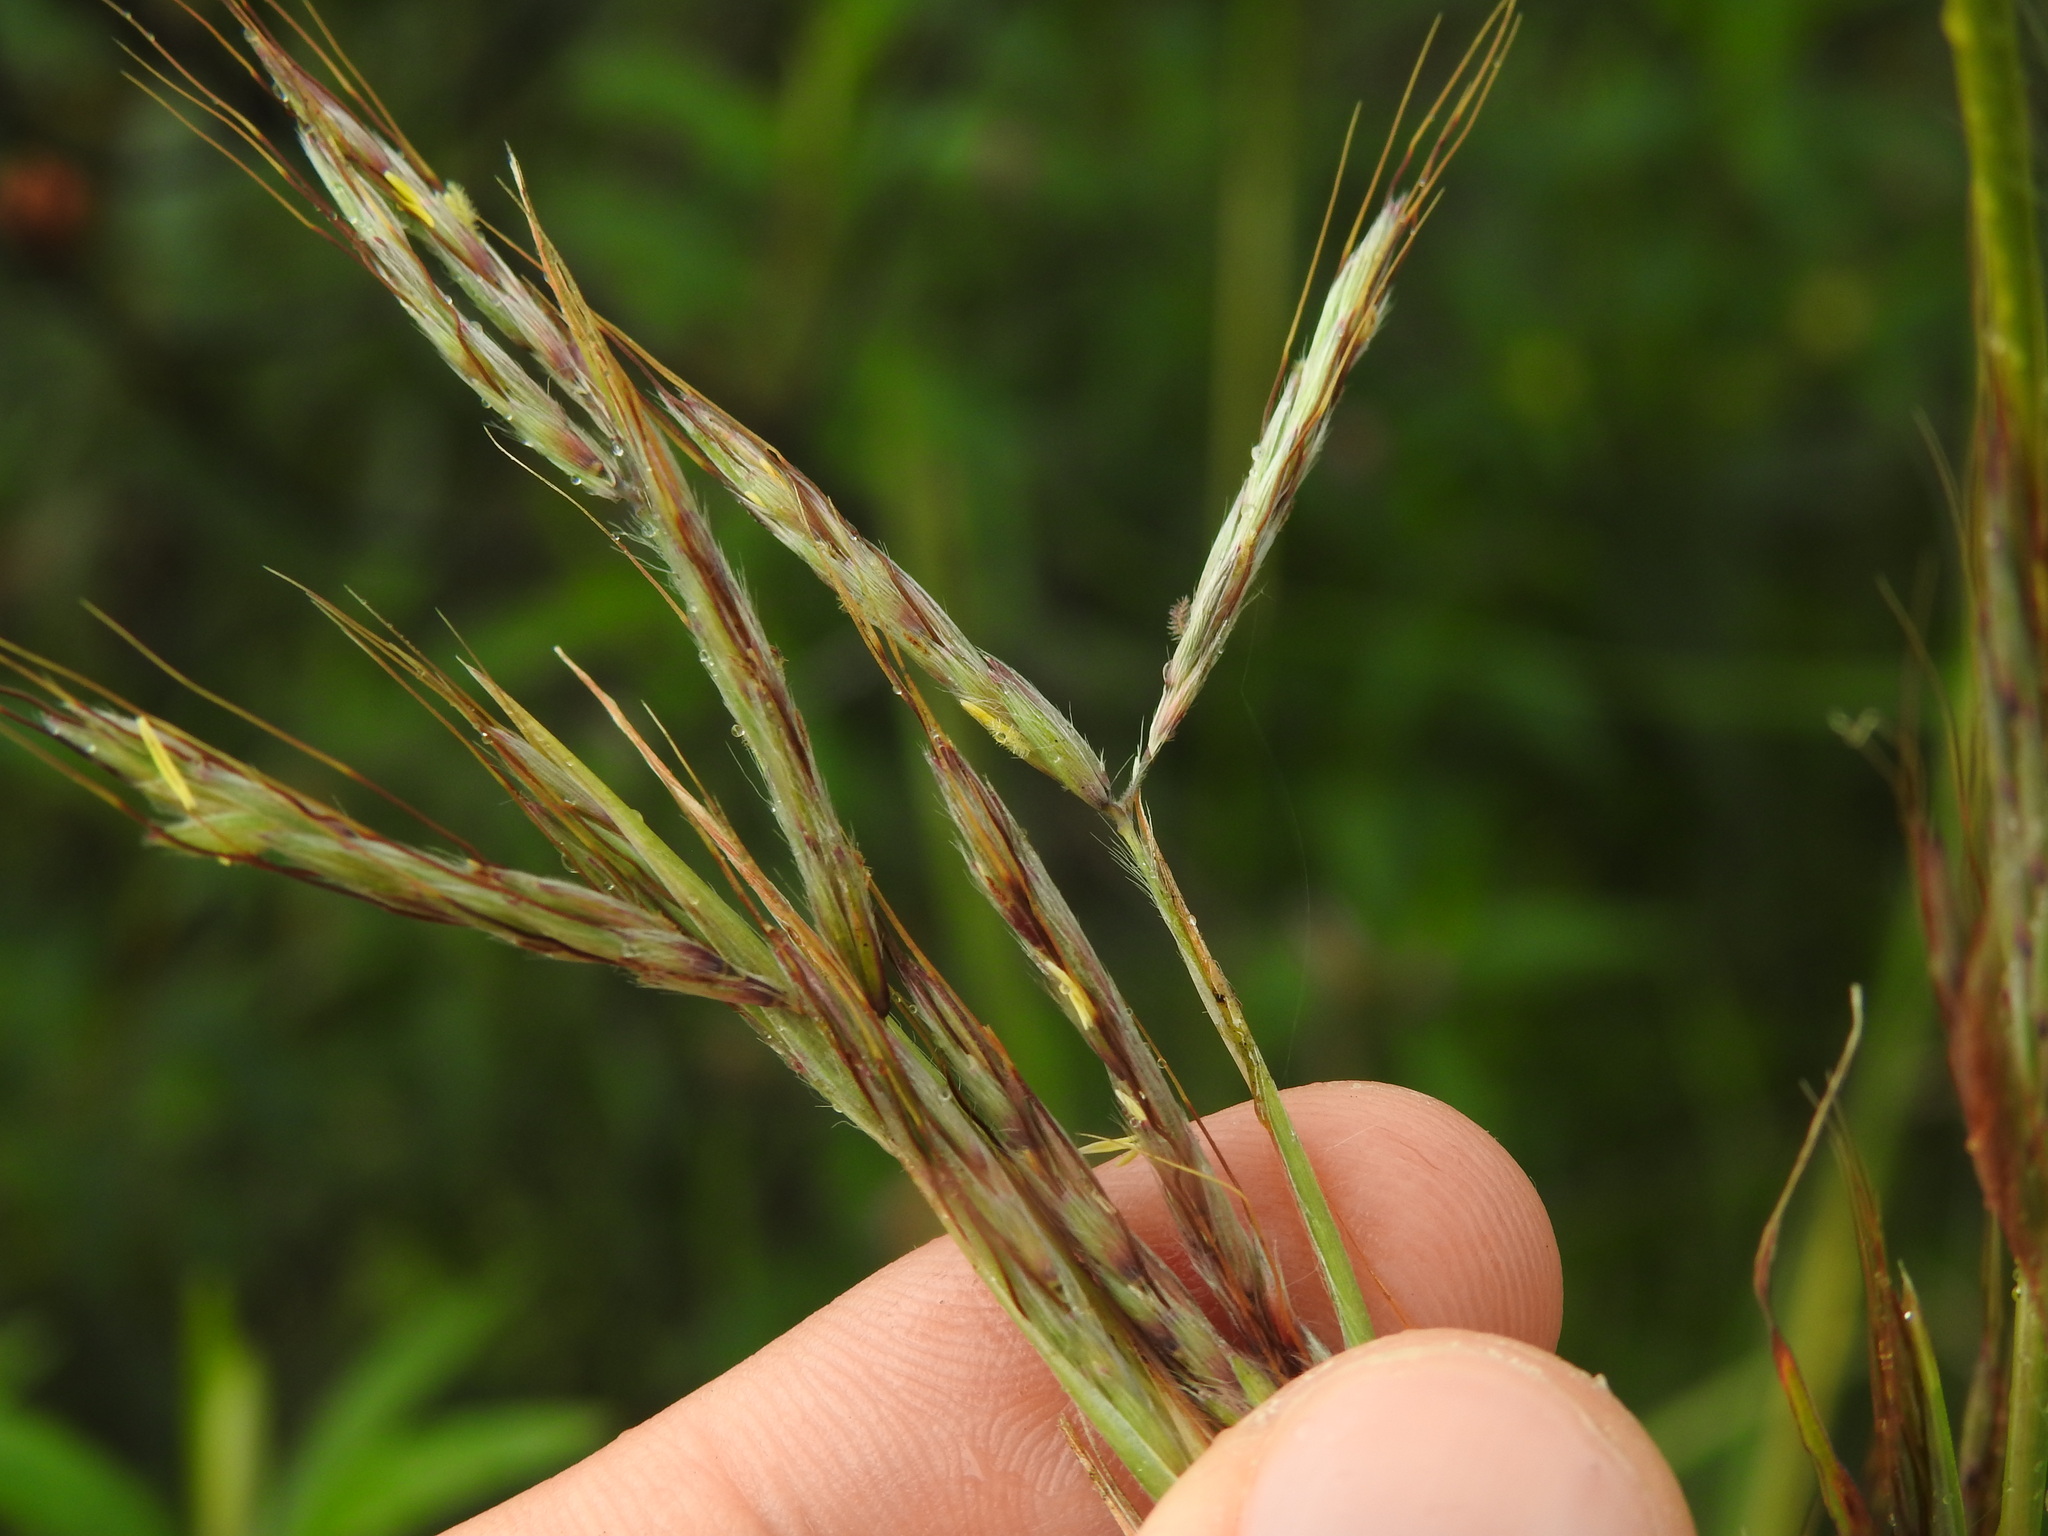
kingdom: Plantae
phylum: Tracheophyta
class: Liliopsida
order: Poales
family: Poaceae
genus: Hyparrhenia
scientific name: Hyparrhenia hirta
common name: Thatching grass
